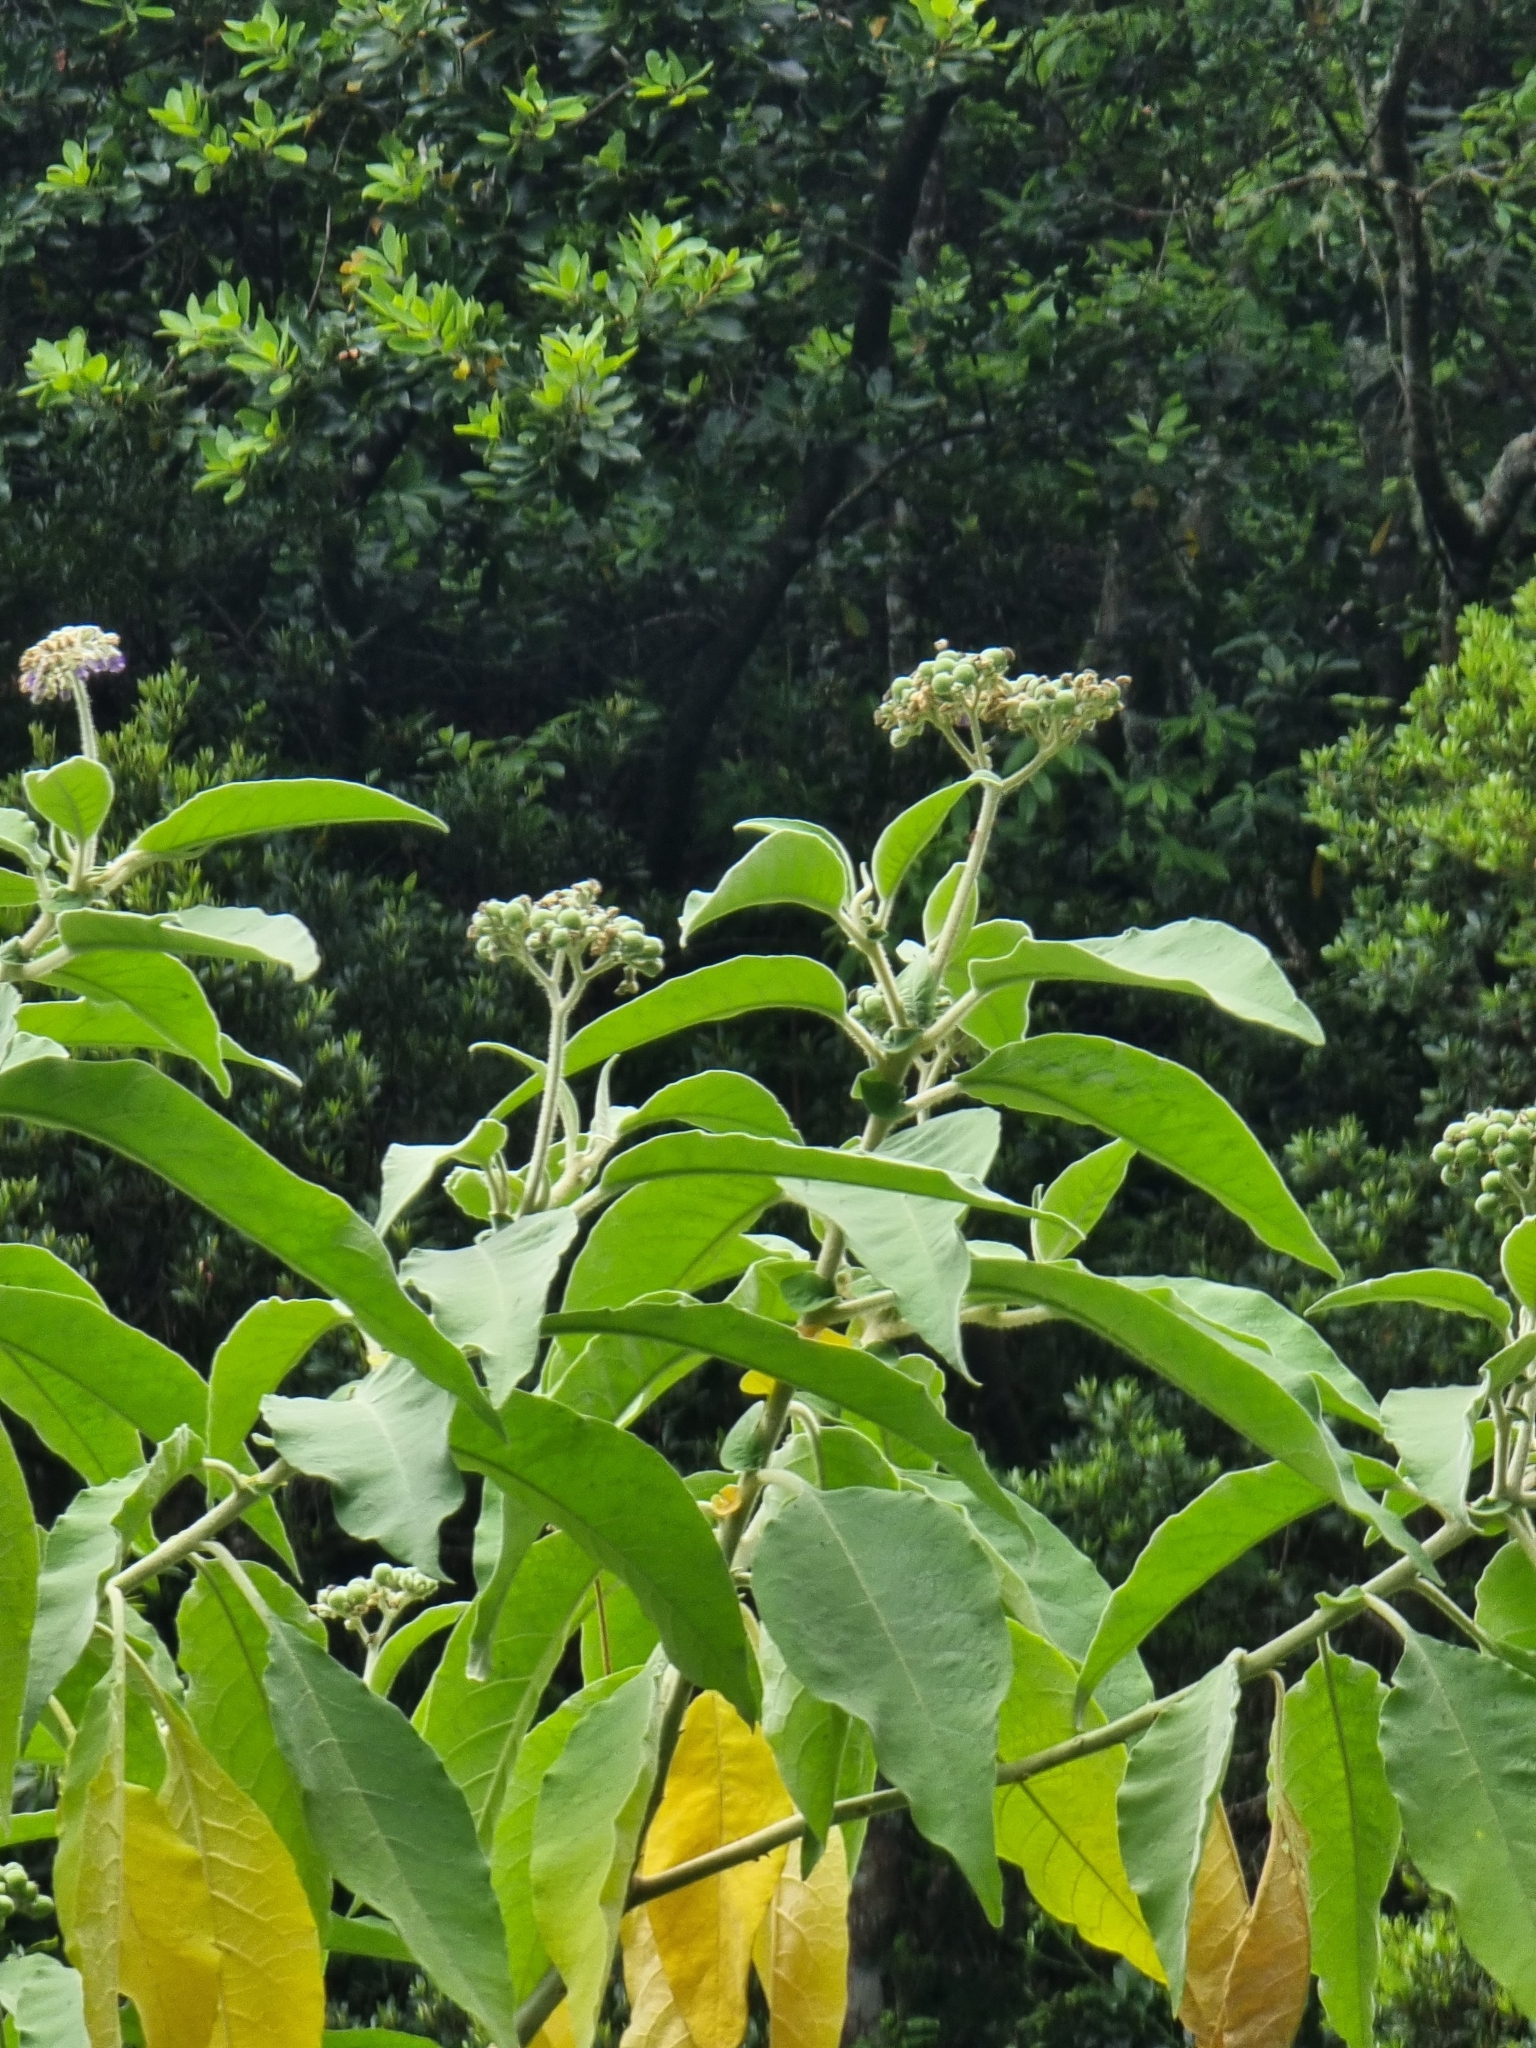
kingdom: Plantae
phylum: Tracheophyta
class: Magnoliopsida
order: Solanales
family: Solanaceae
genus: Solanum
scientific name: Solanum mauritianum
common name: Earleaf nightshade
